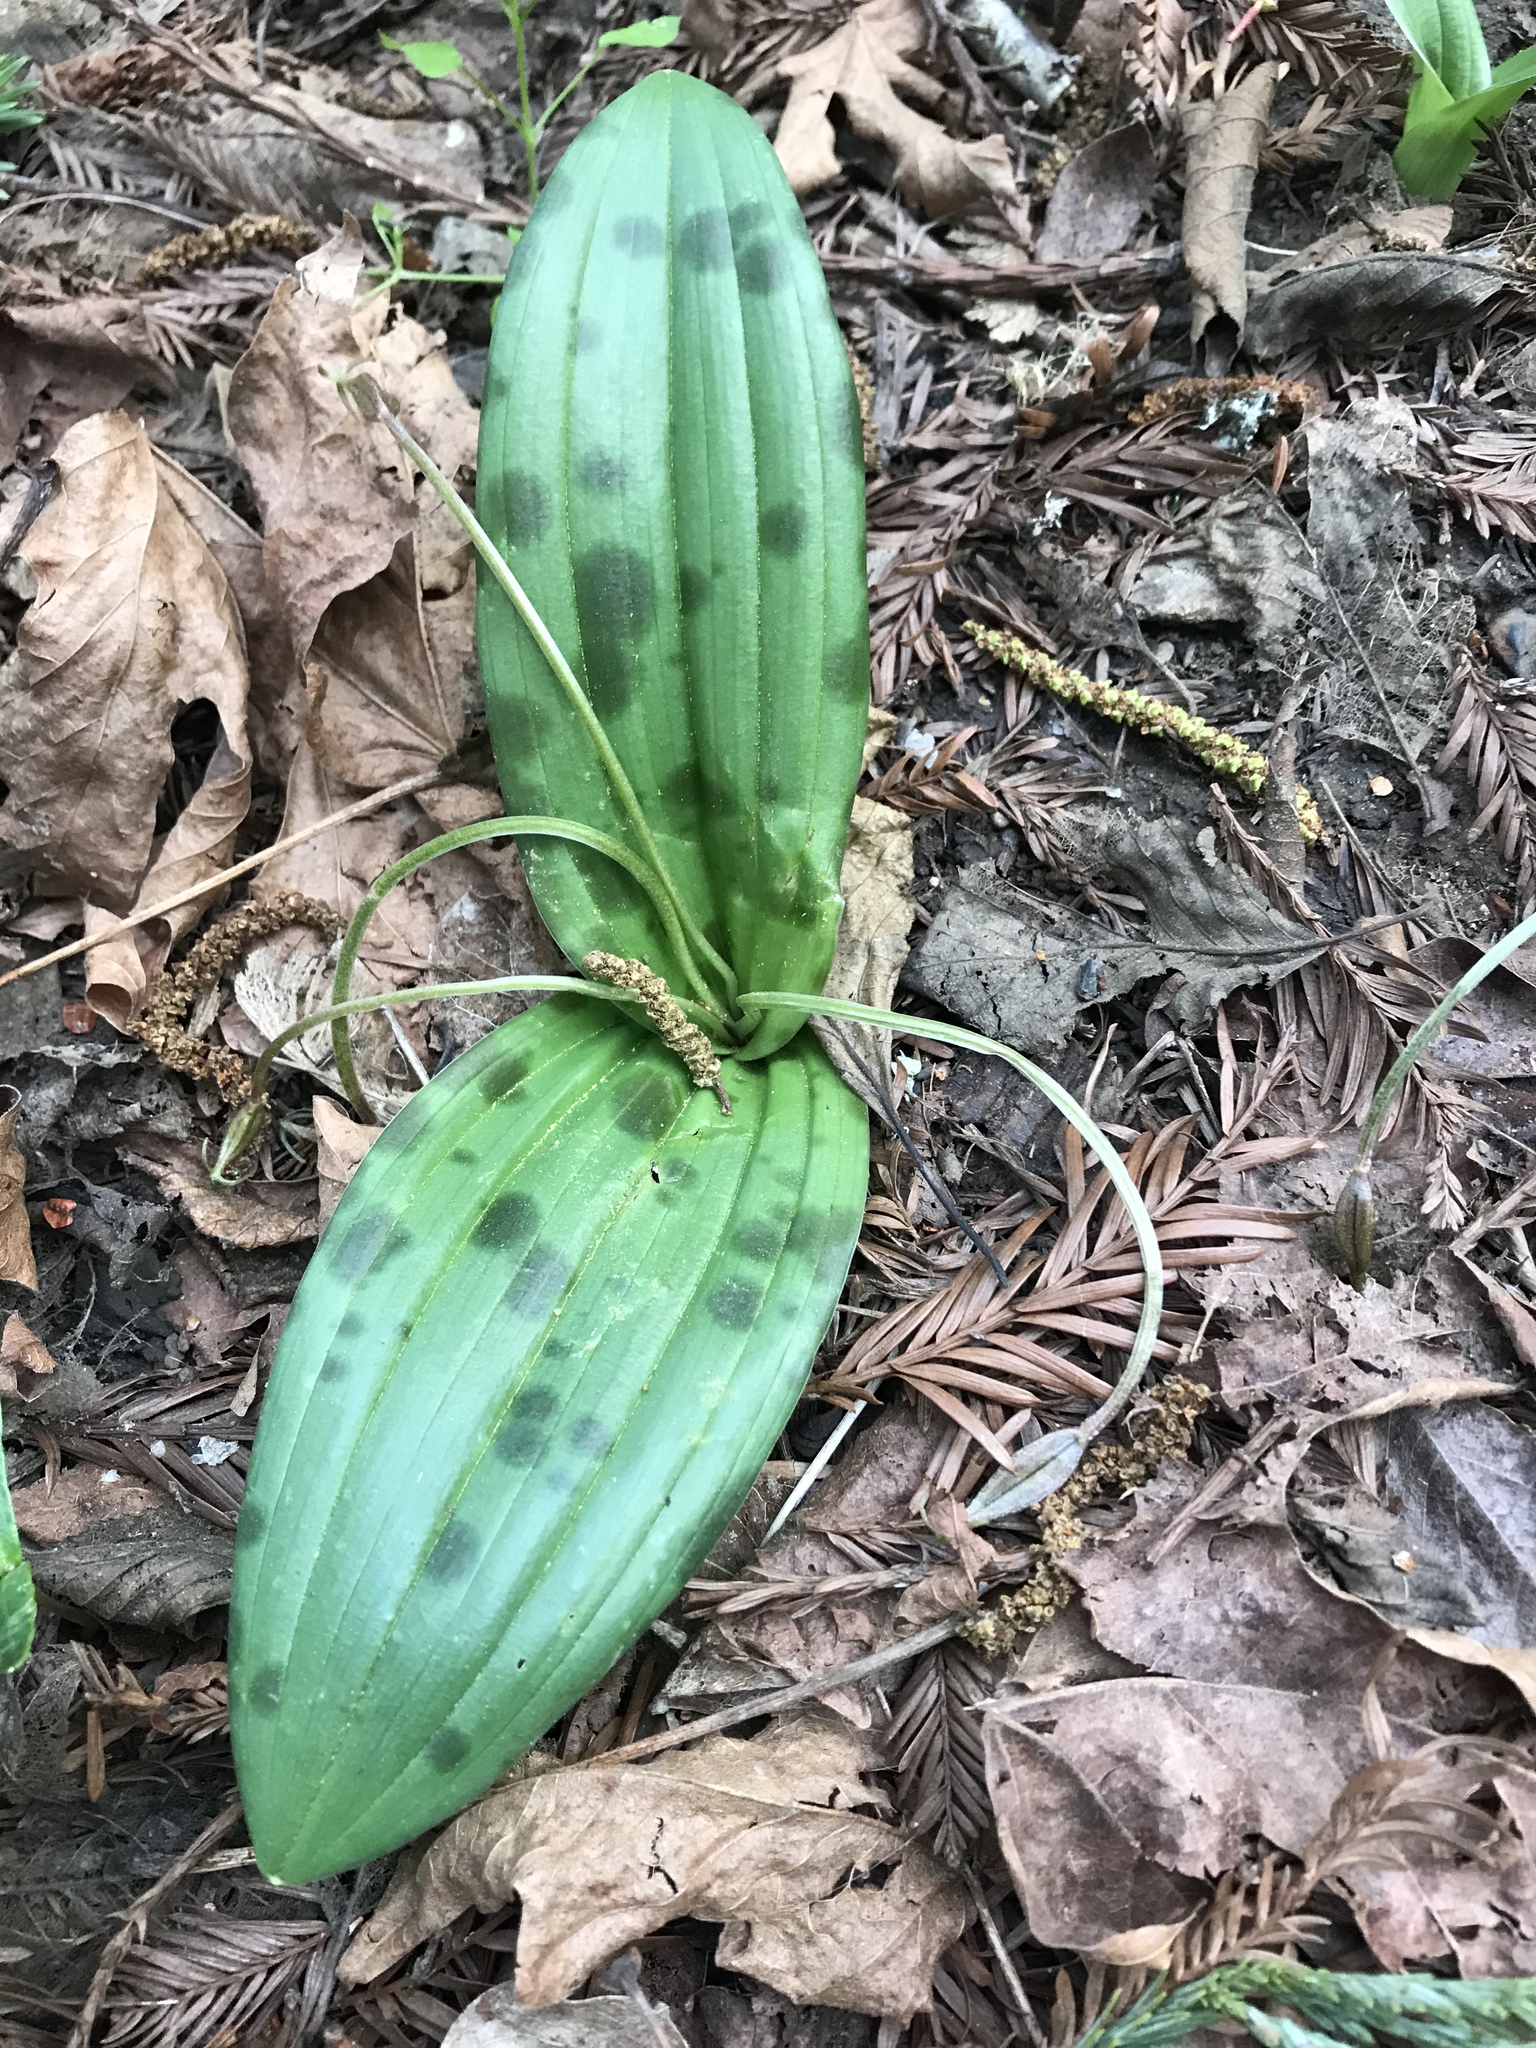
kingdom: Plantae
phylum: Tracheophyta
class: Liliopsida
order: Liliales
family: Liliaceae
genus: Scoliopus
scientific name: Scoliopus bigelovii
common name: Foetid adder's-tongue
